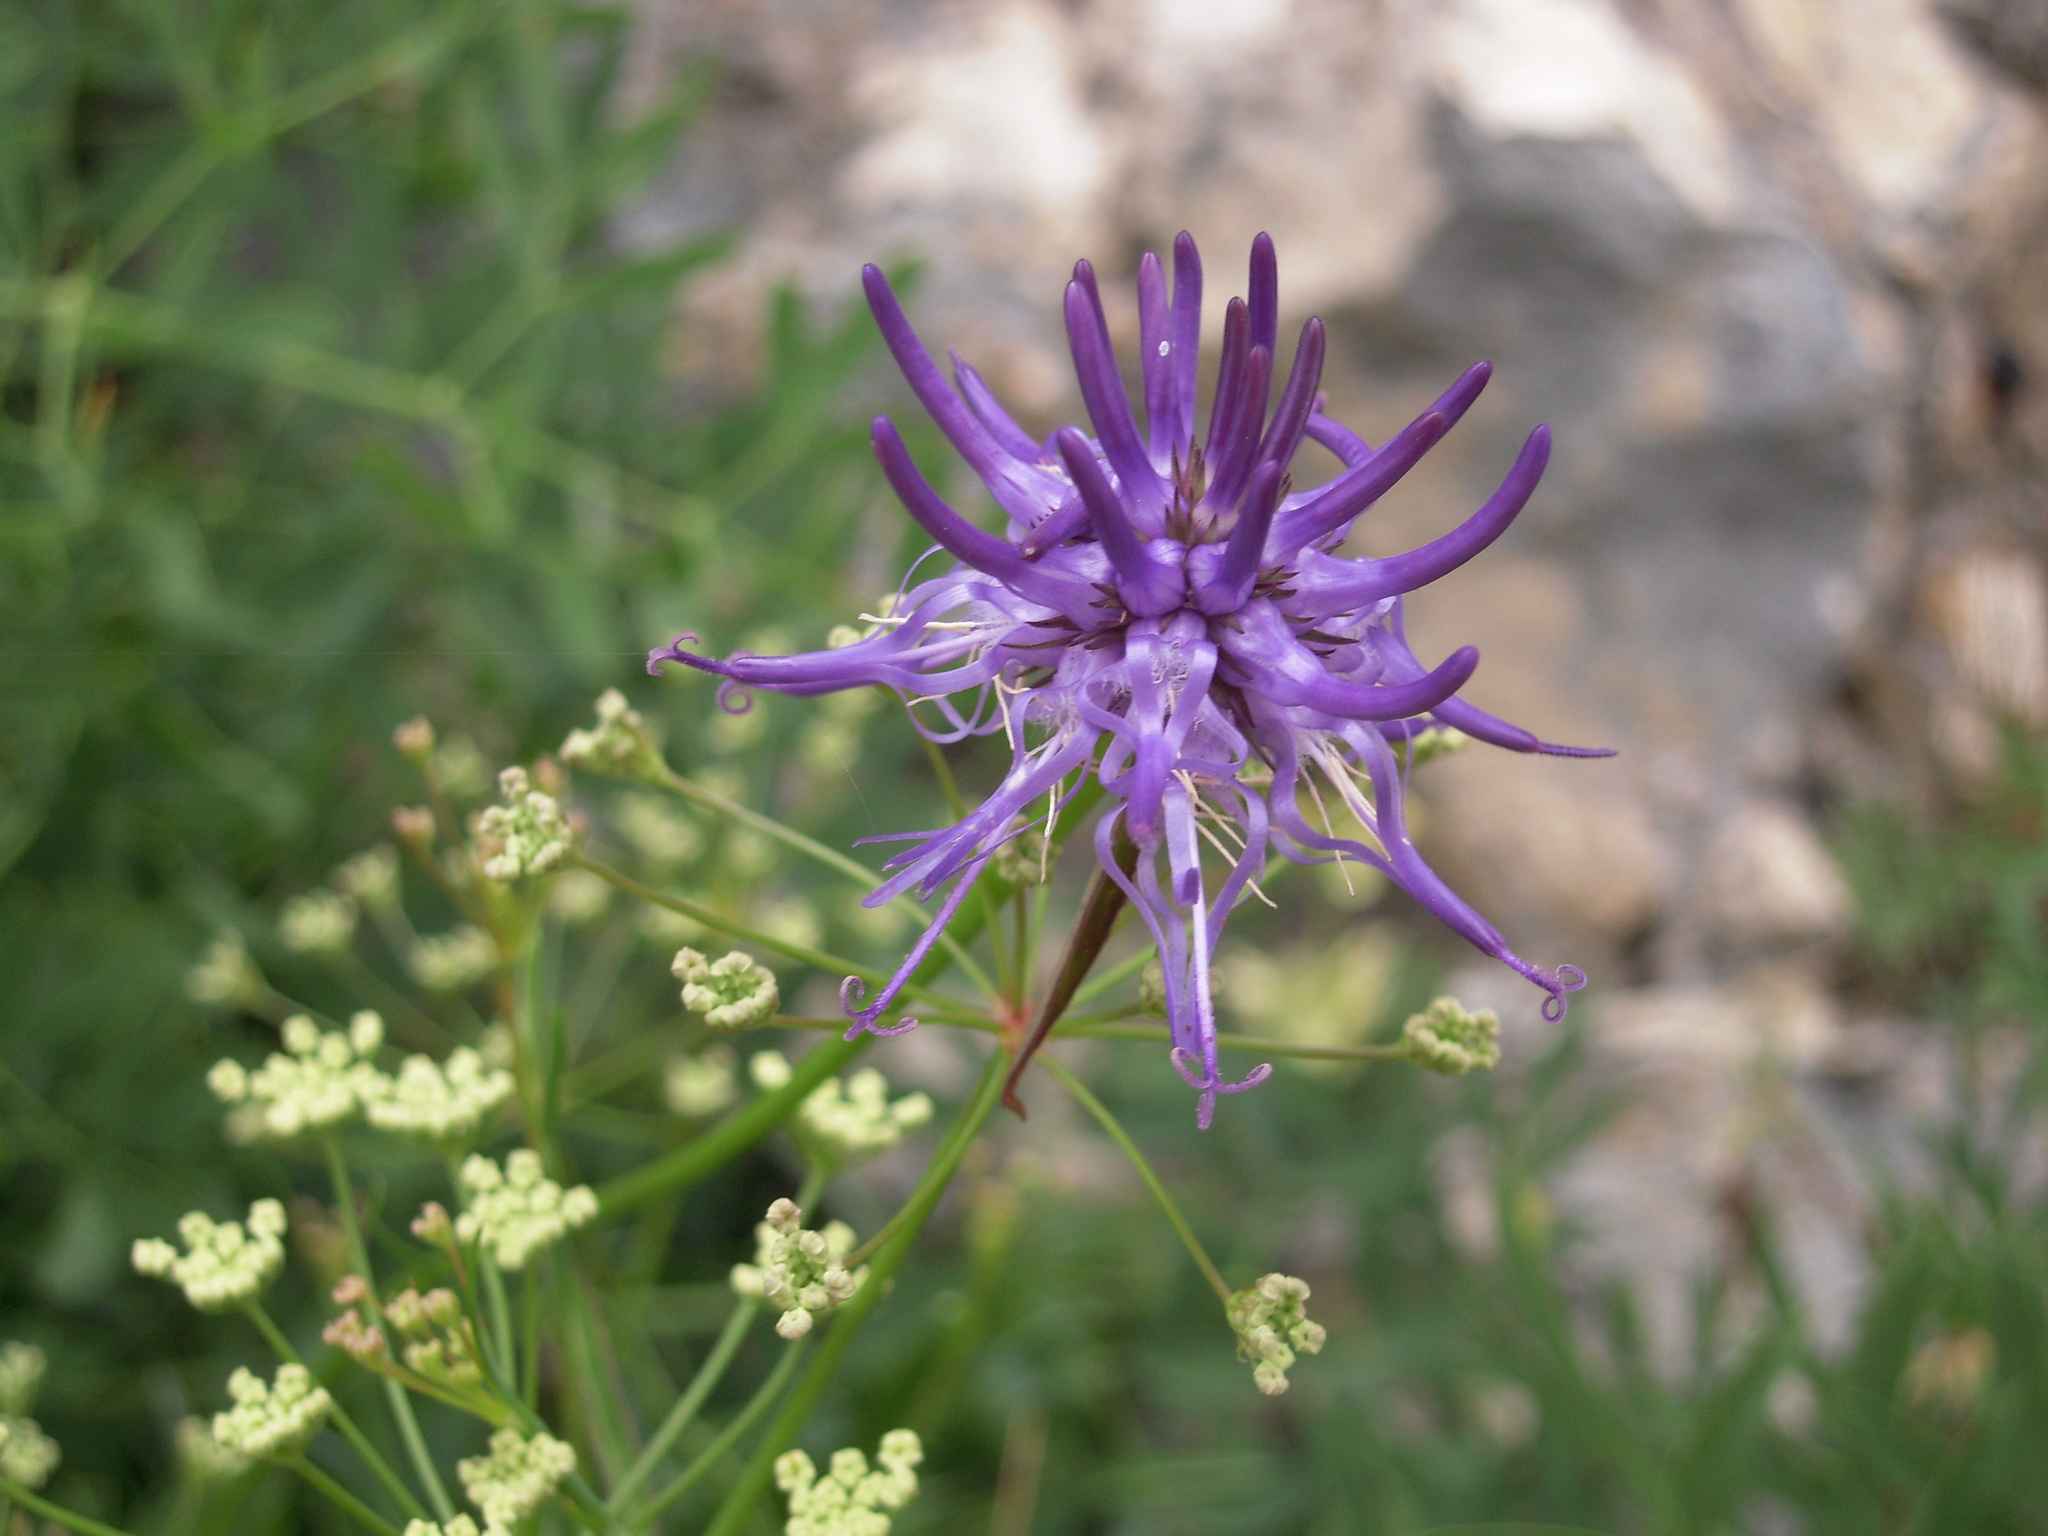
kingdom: Plantae
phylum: Tracheophyta
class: Magnoliopsida
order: Asterales
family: Campanulaceae
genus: Phyteuma
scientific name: Phyteuma scheuchzeri
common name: Oxford rampion
